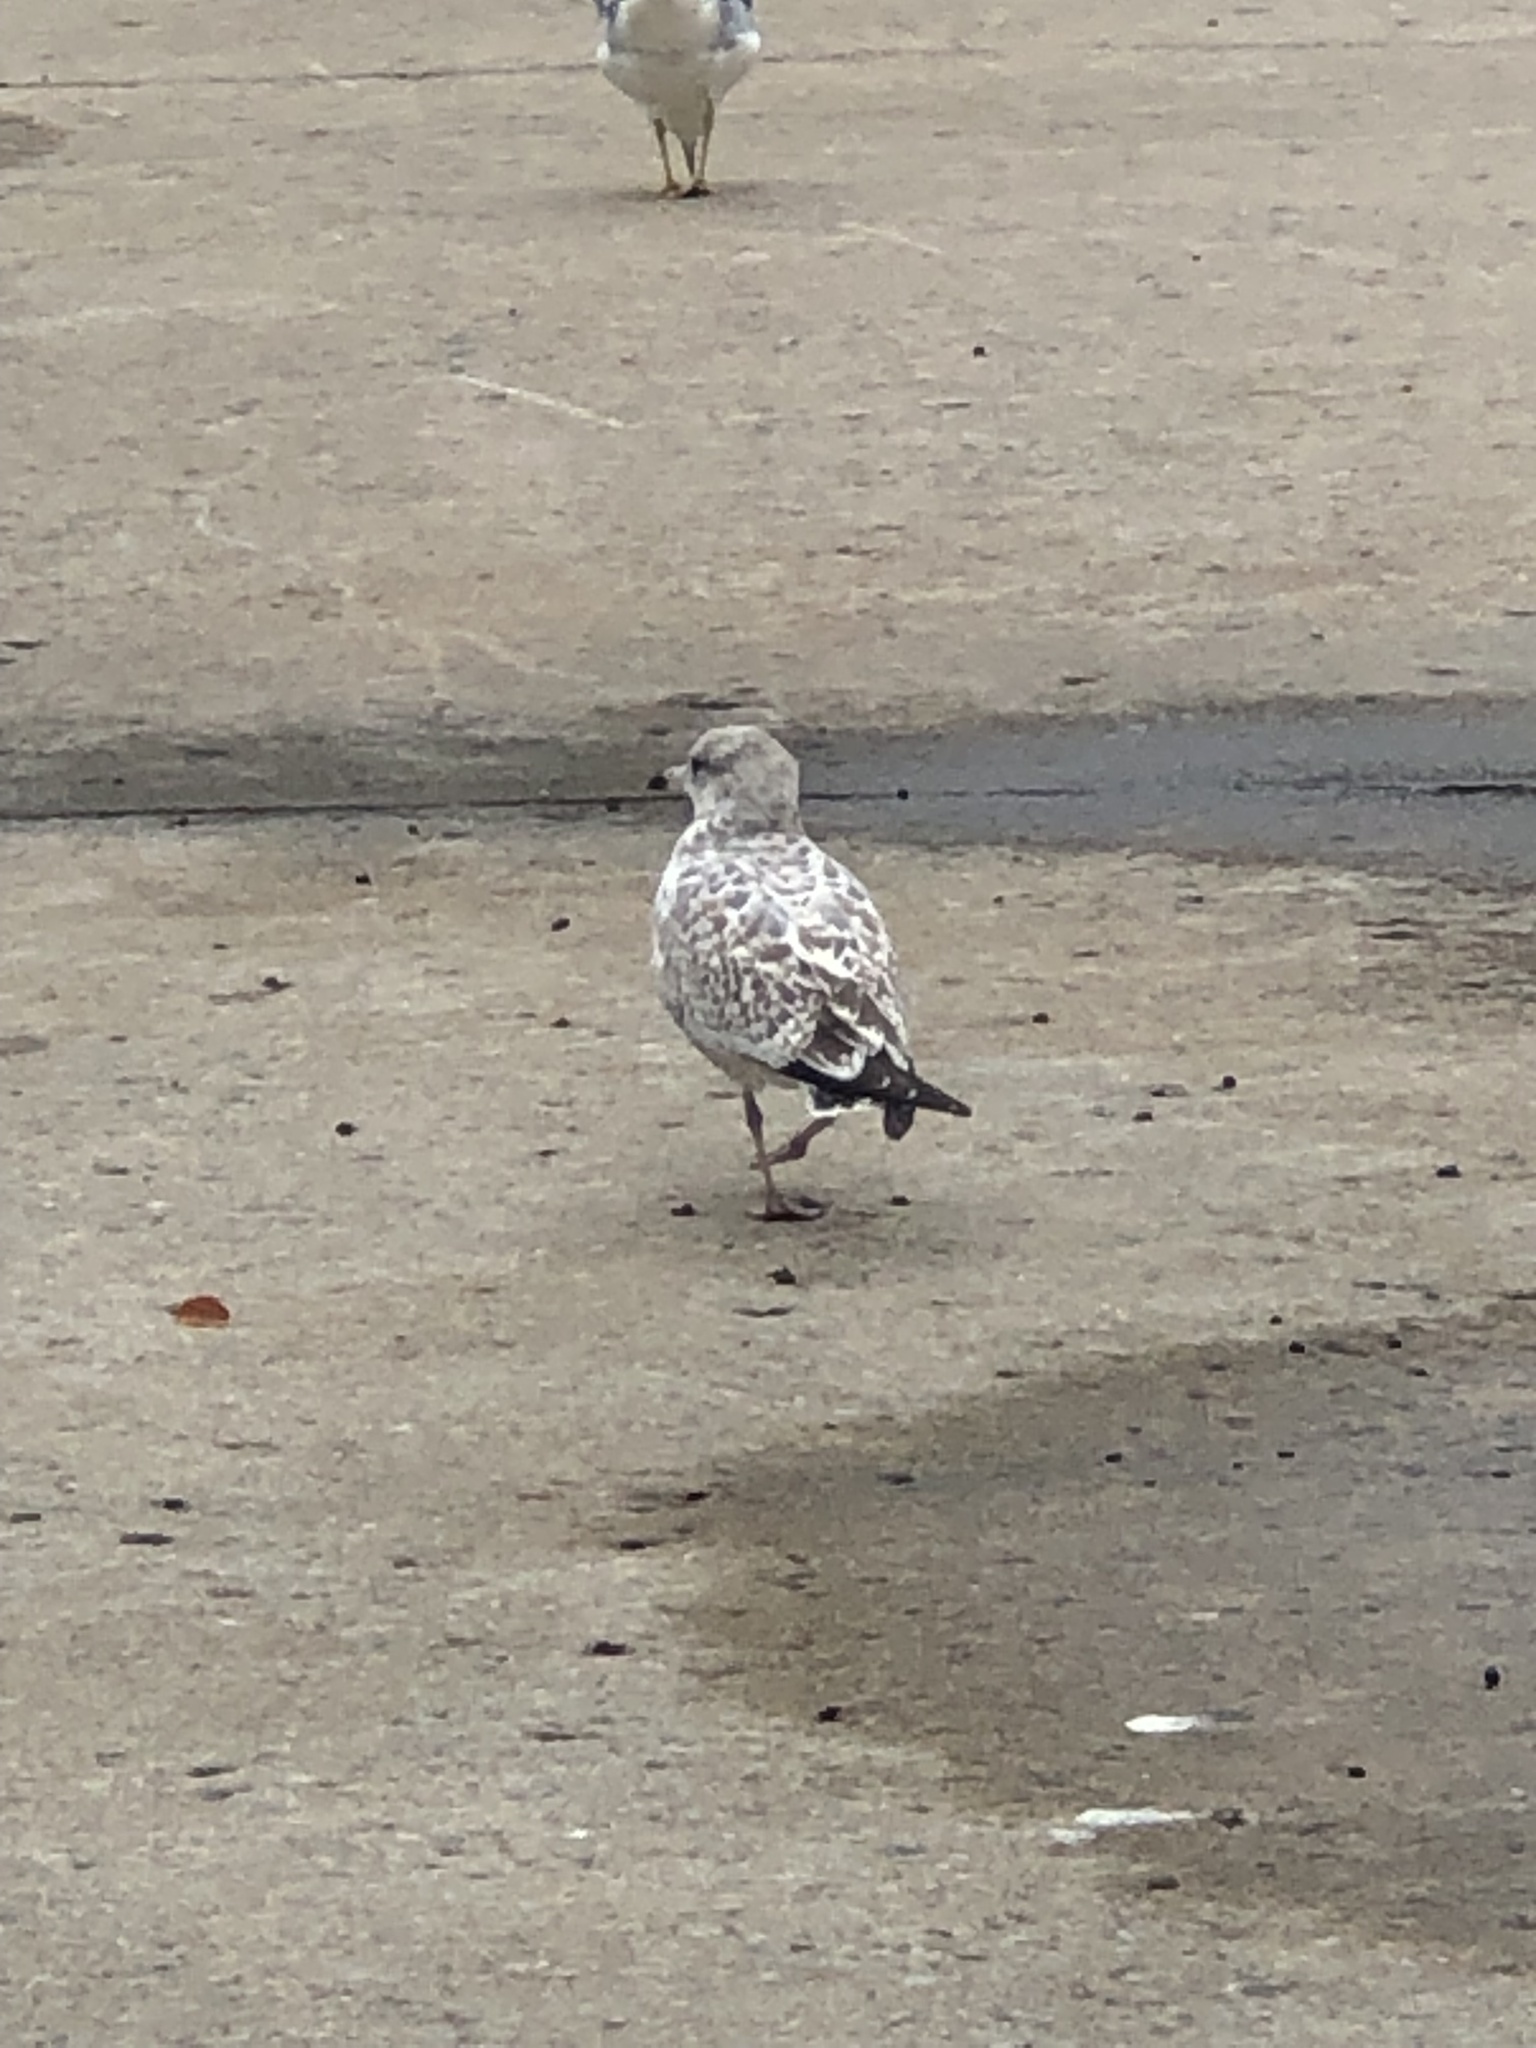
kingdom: Animalia
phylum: Chordata
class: Aves
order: Charadriiformes
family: Laridae
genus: Larus
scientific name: Larus delawarensis
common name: Ring-billed gull
